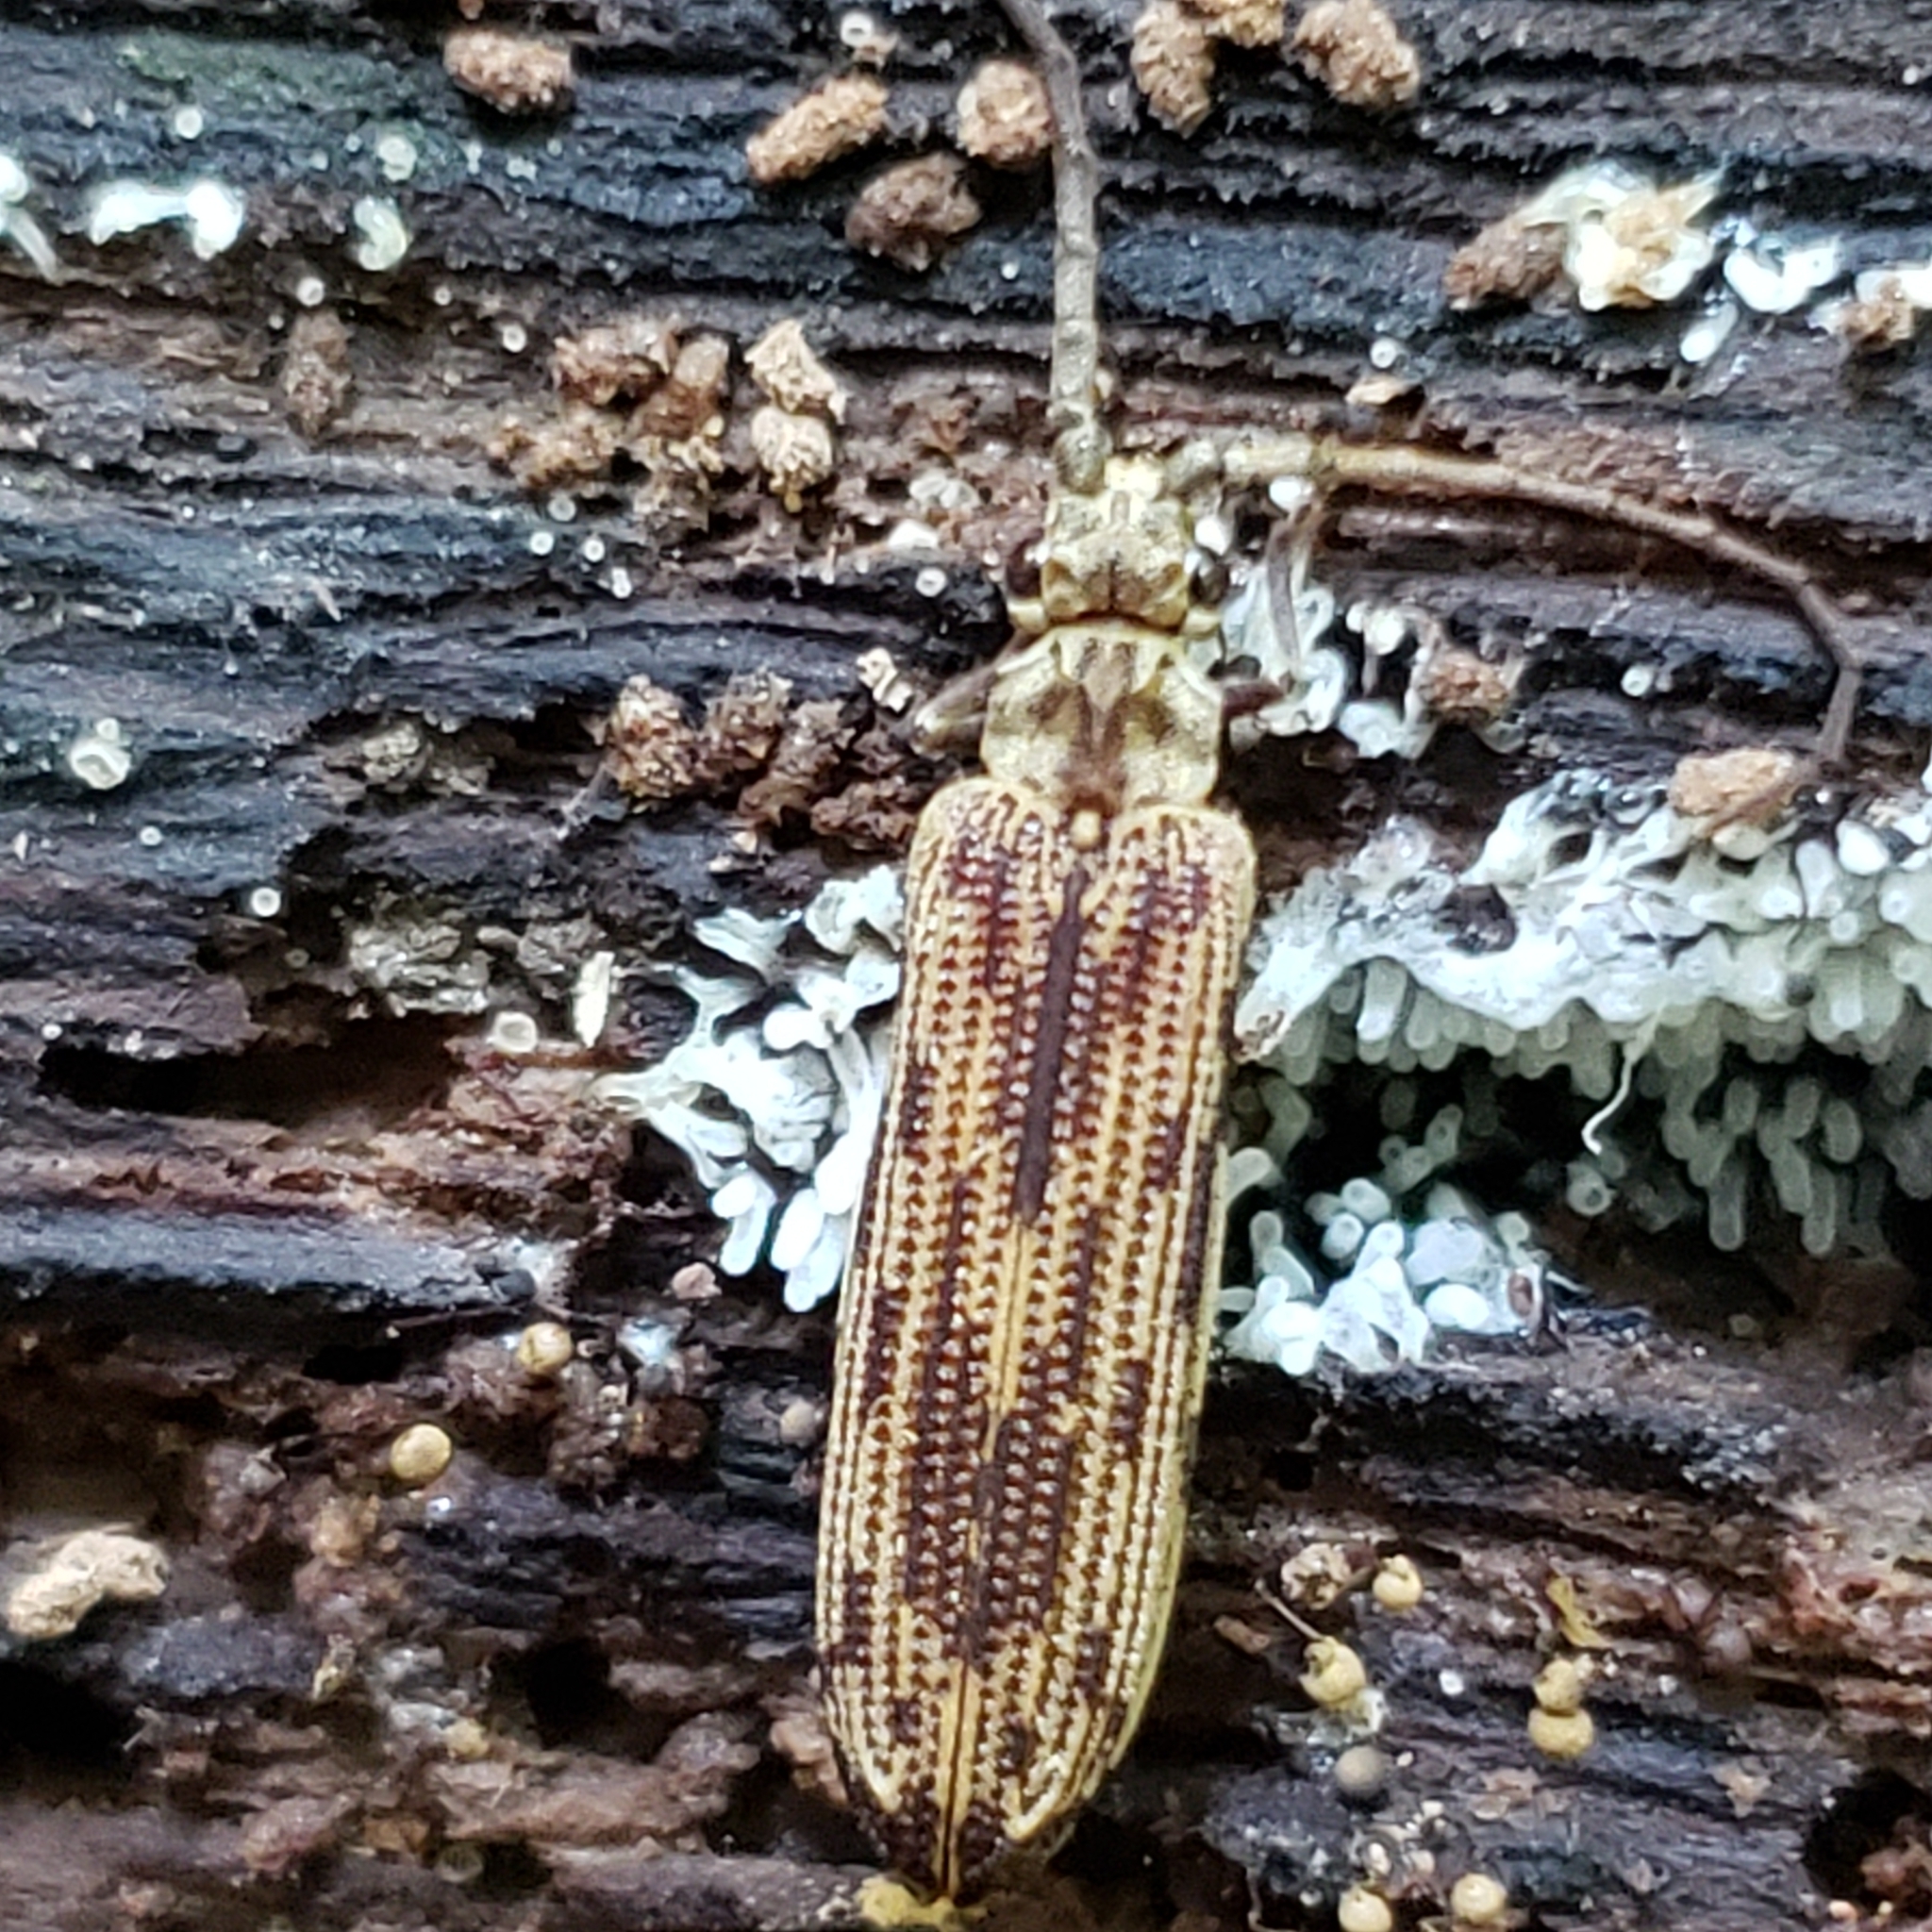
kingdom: Animalia
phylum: Arthropoda
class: Insecta
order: Coleoptera
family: Cupedidae
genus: Tenomerga
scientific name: Tenomerga cinerea
